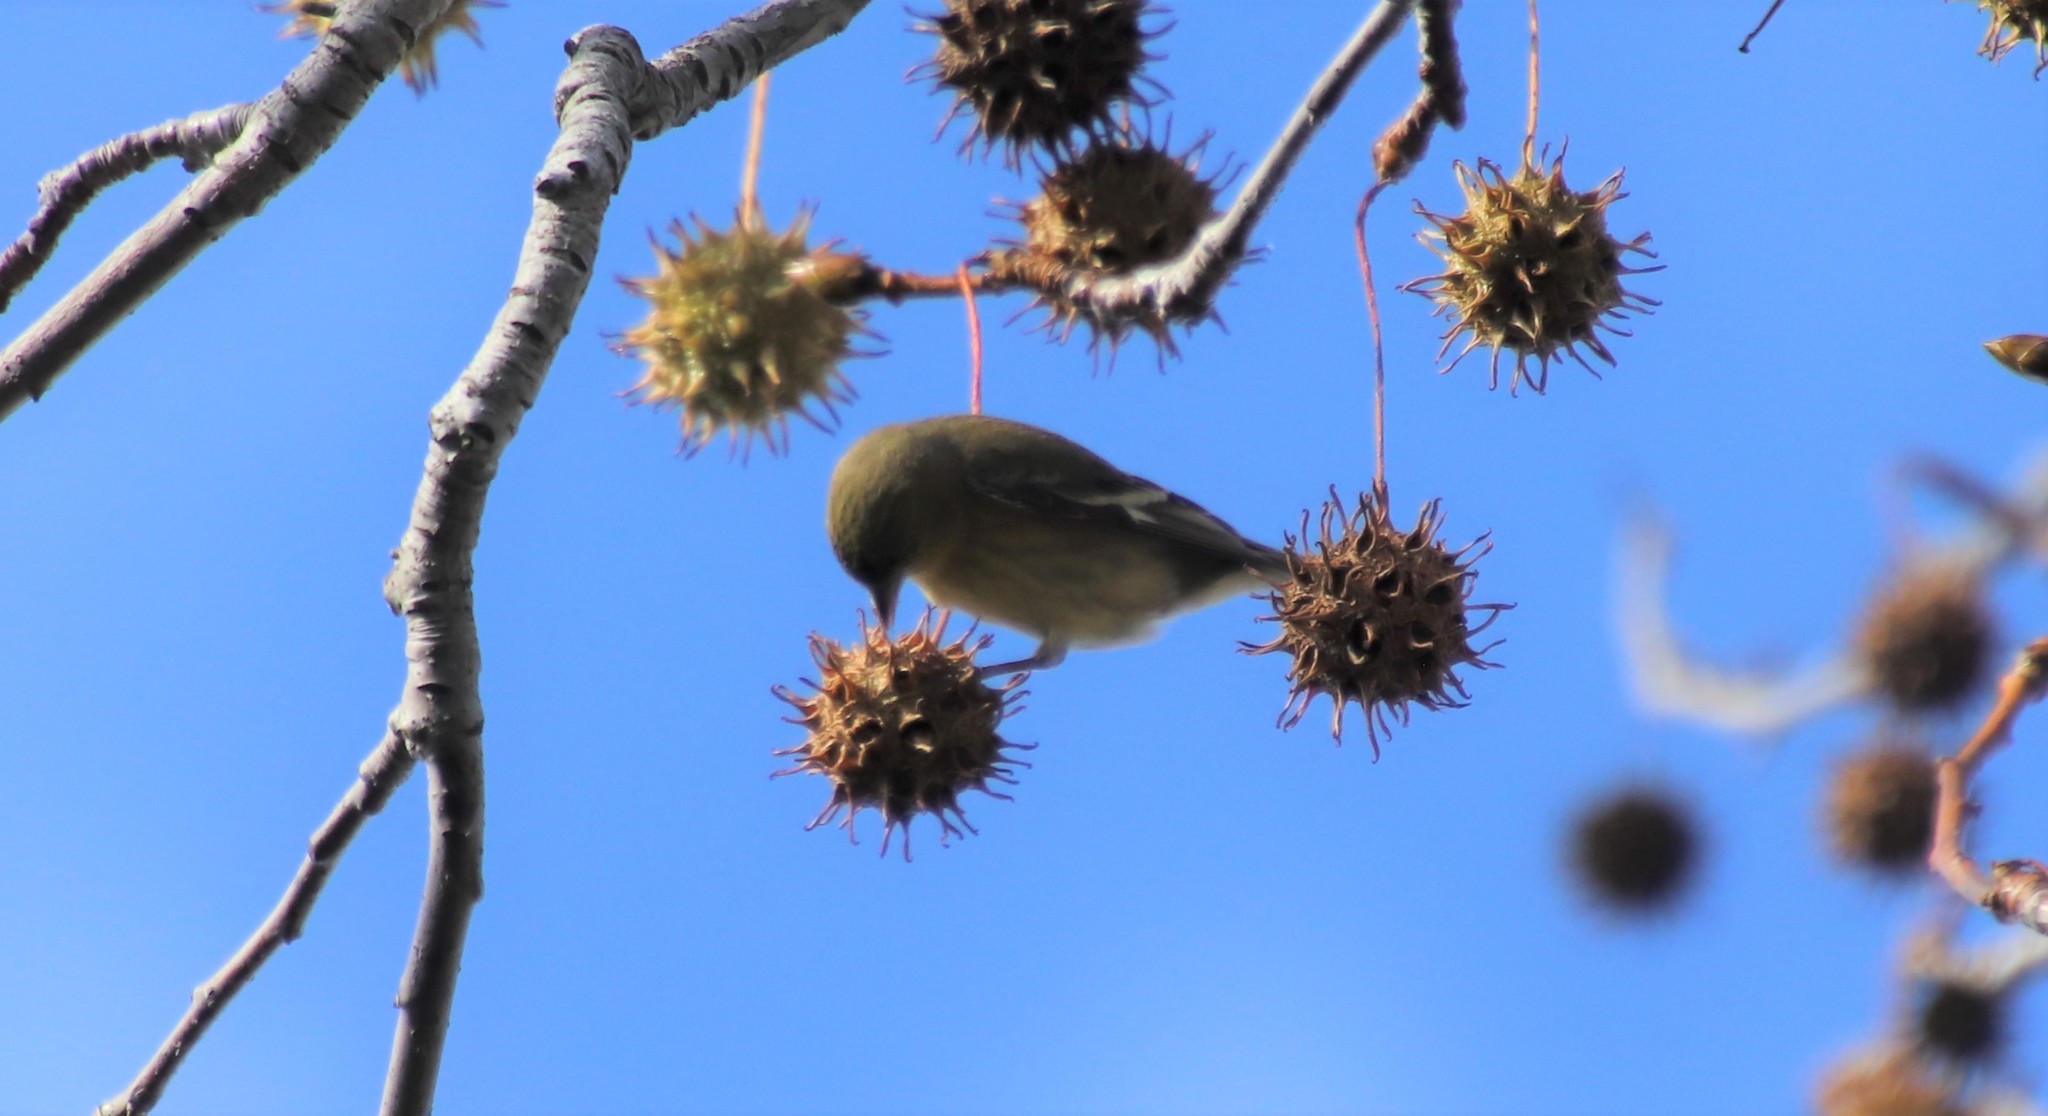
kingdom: Animalia
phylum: Chordata
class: Aves
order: Passeriformes
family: Fringillidae
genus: Spinus
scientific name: Spinus psaltria
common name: Lesser goldfinch
